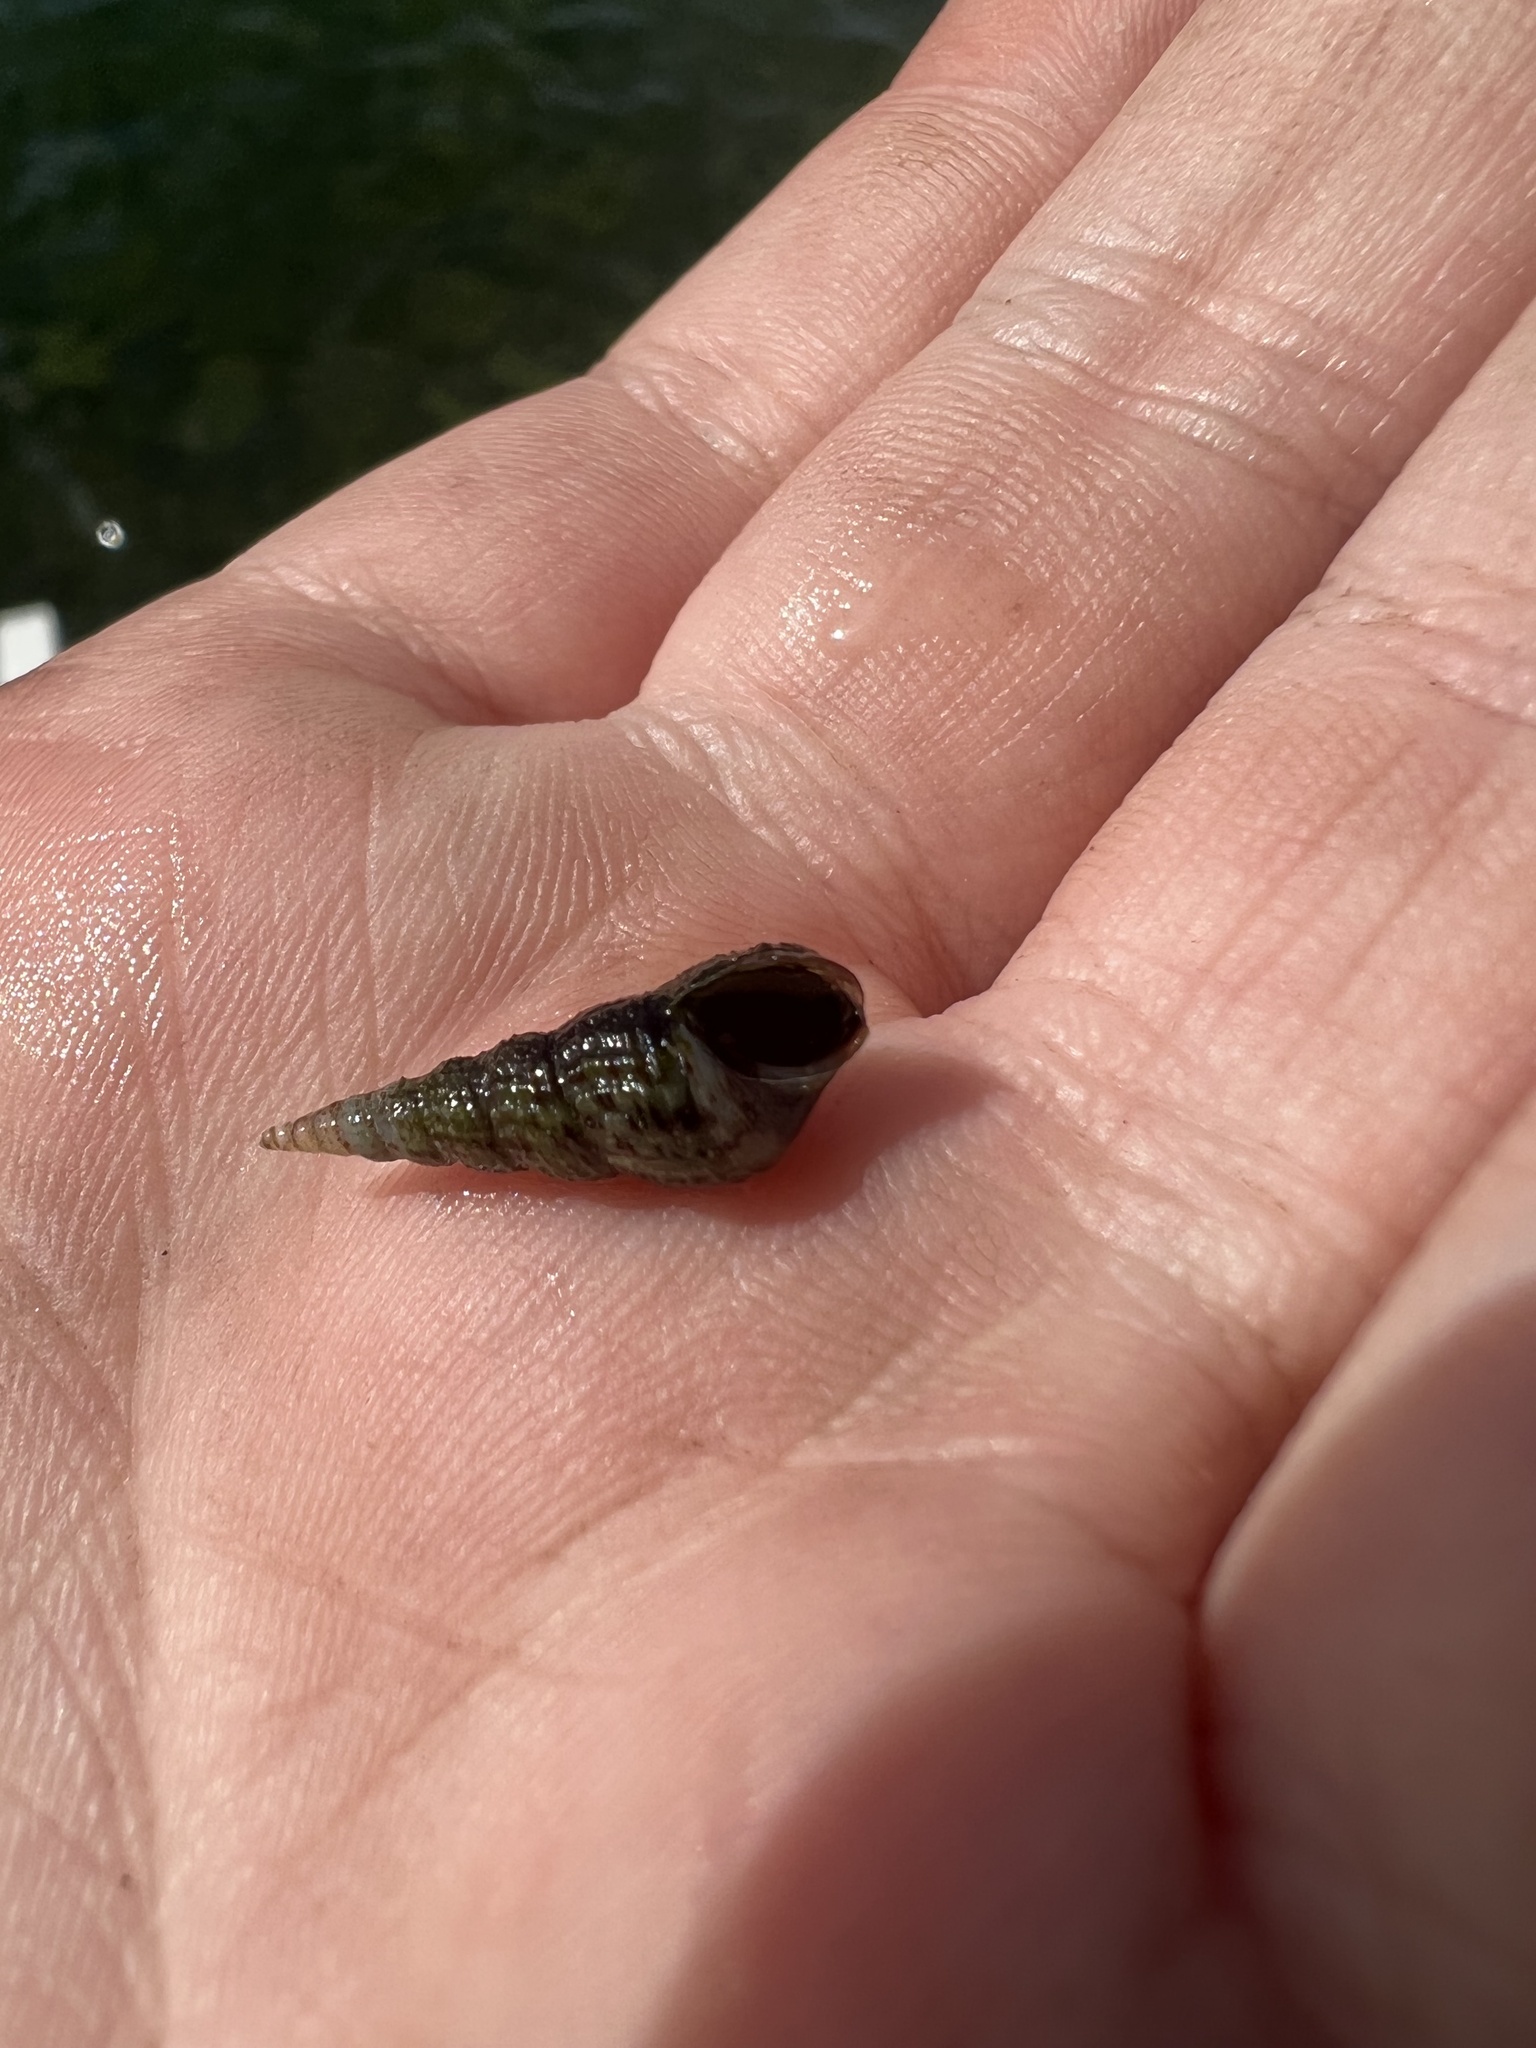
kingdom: Animalia
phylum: Mollusca
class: Gastropoda
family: Thiaridae
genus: Melanoides
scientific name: Melanoides tuberculata
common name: Red-rim melania
